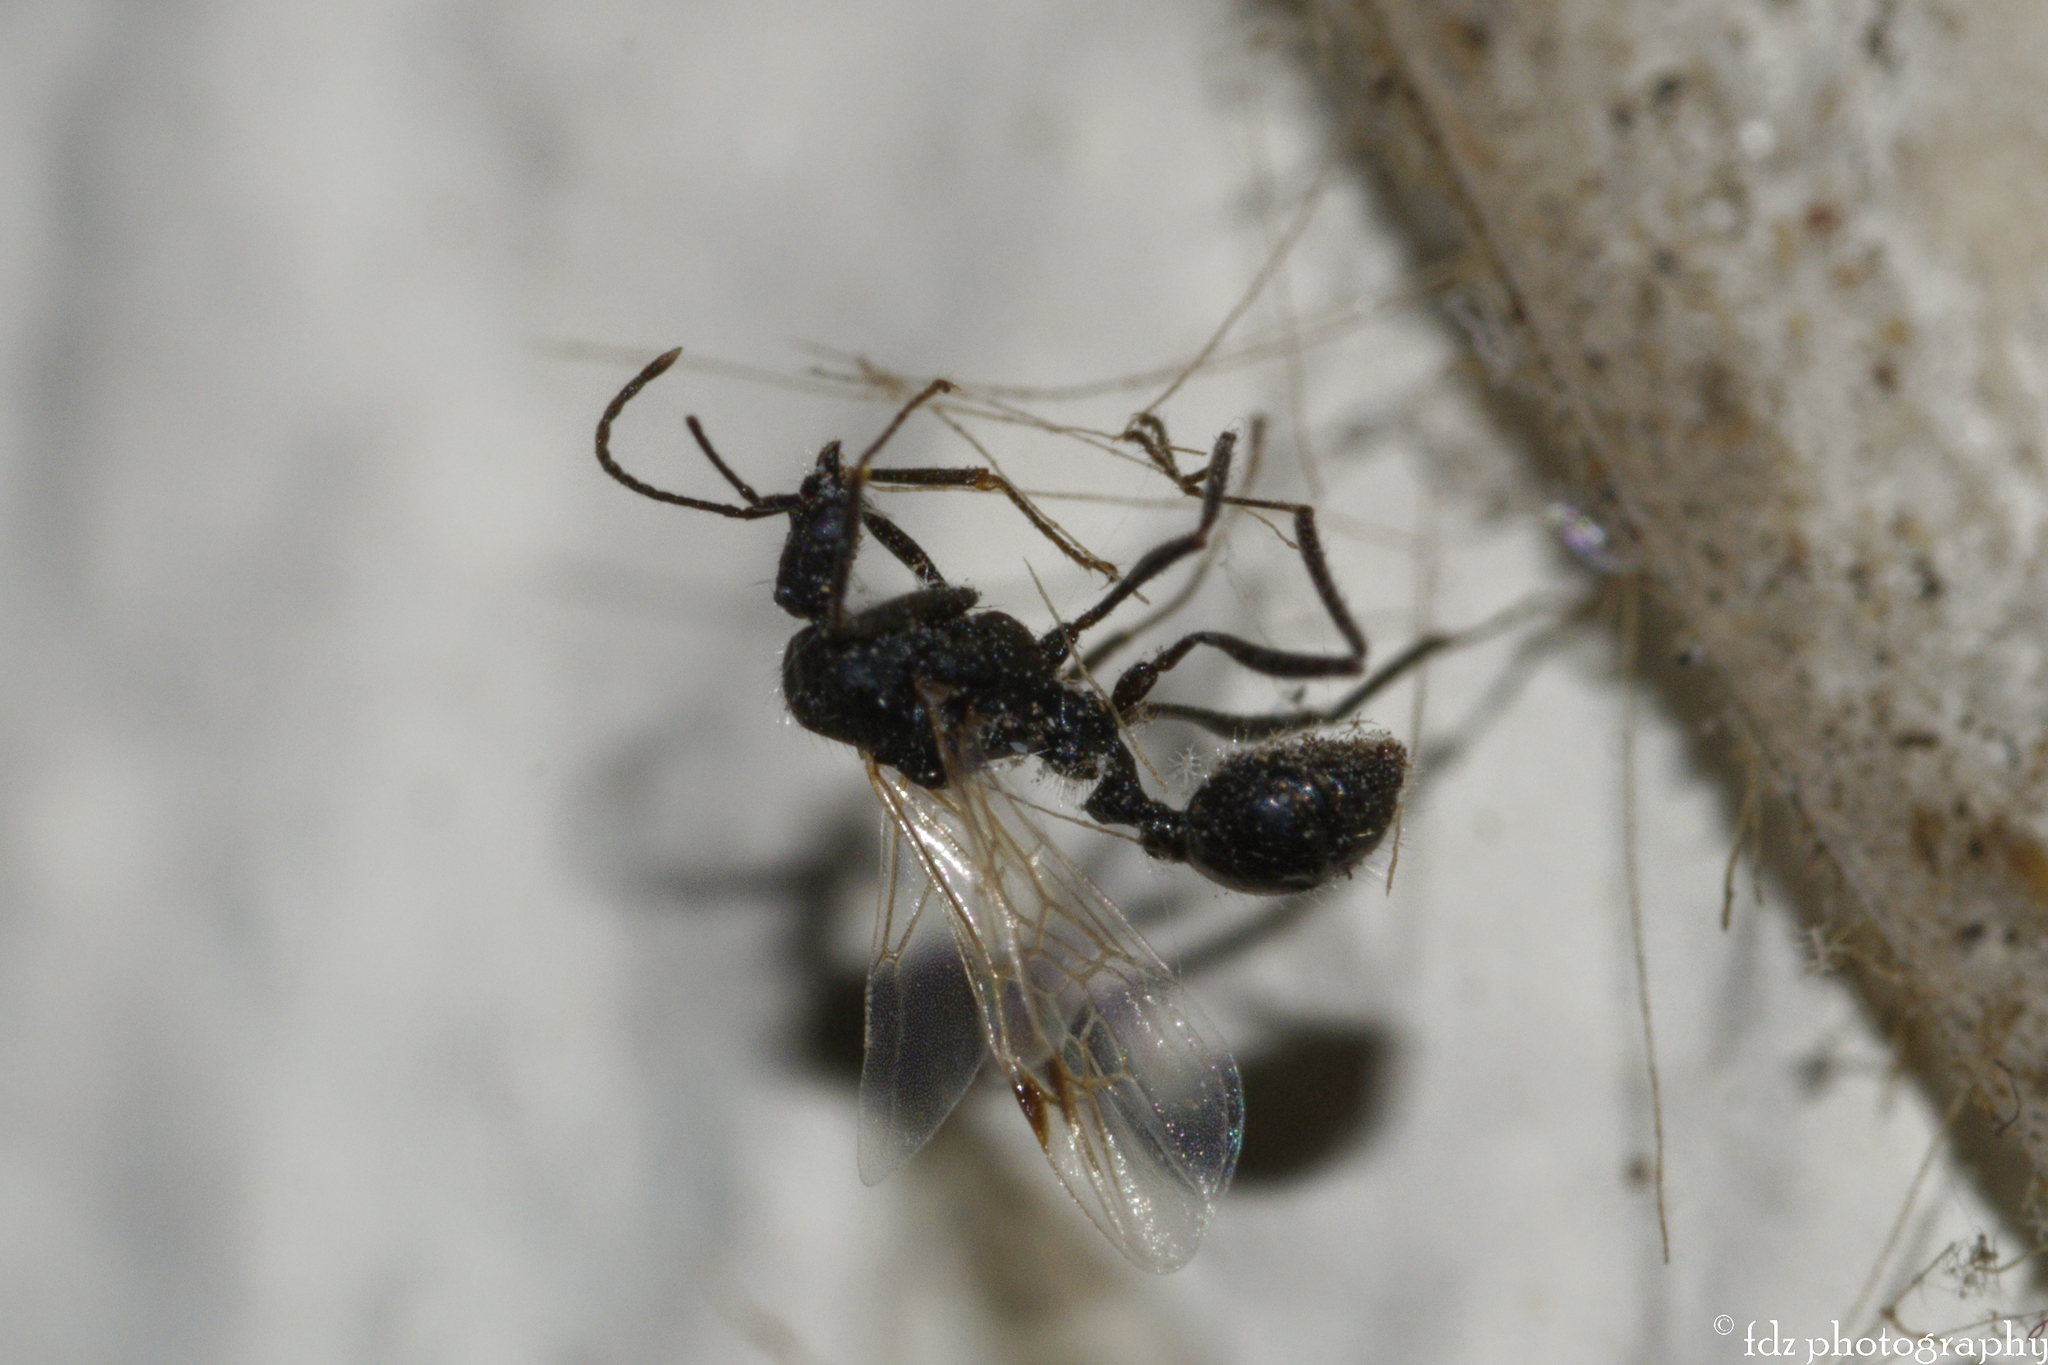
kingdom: Animalia
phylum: Arthropoda
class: Insecta
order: Hymenoptera
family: Formicidae
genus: Aphaenogaster
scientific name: Aphaenogaster senilis
